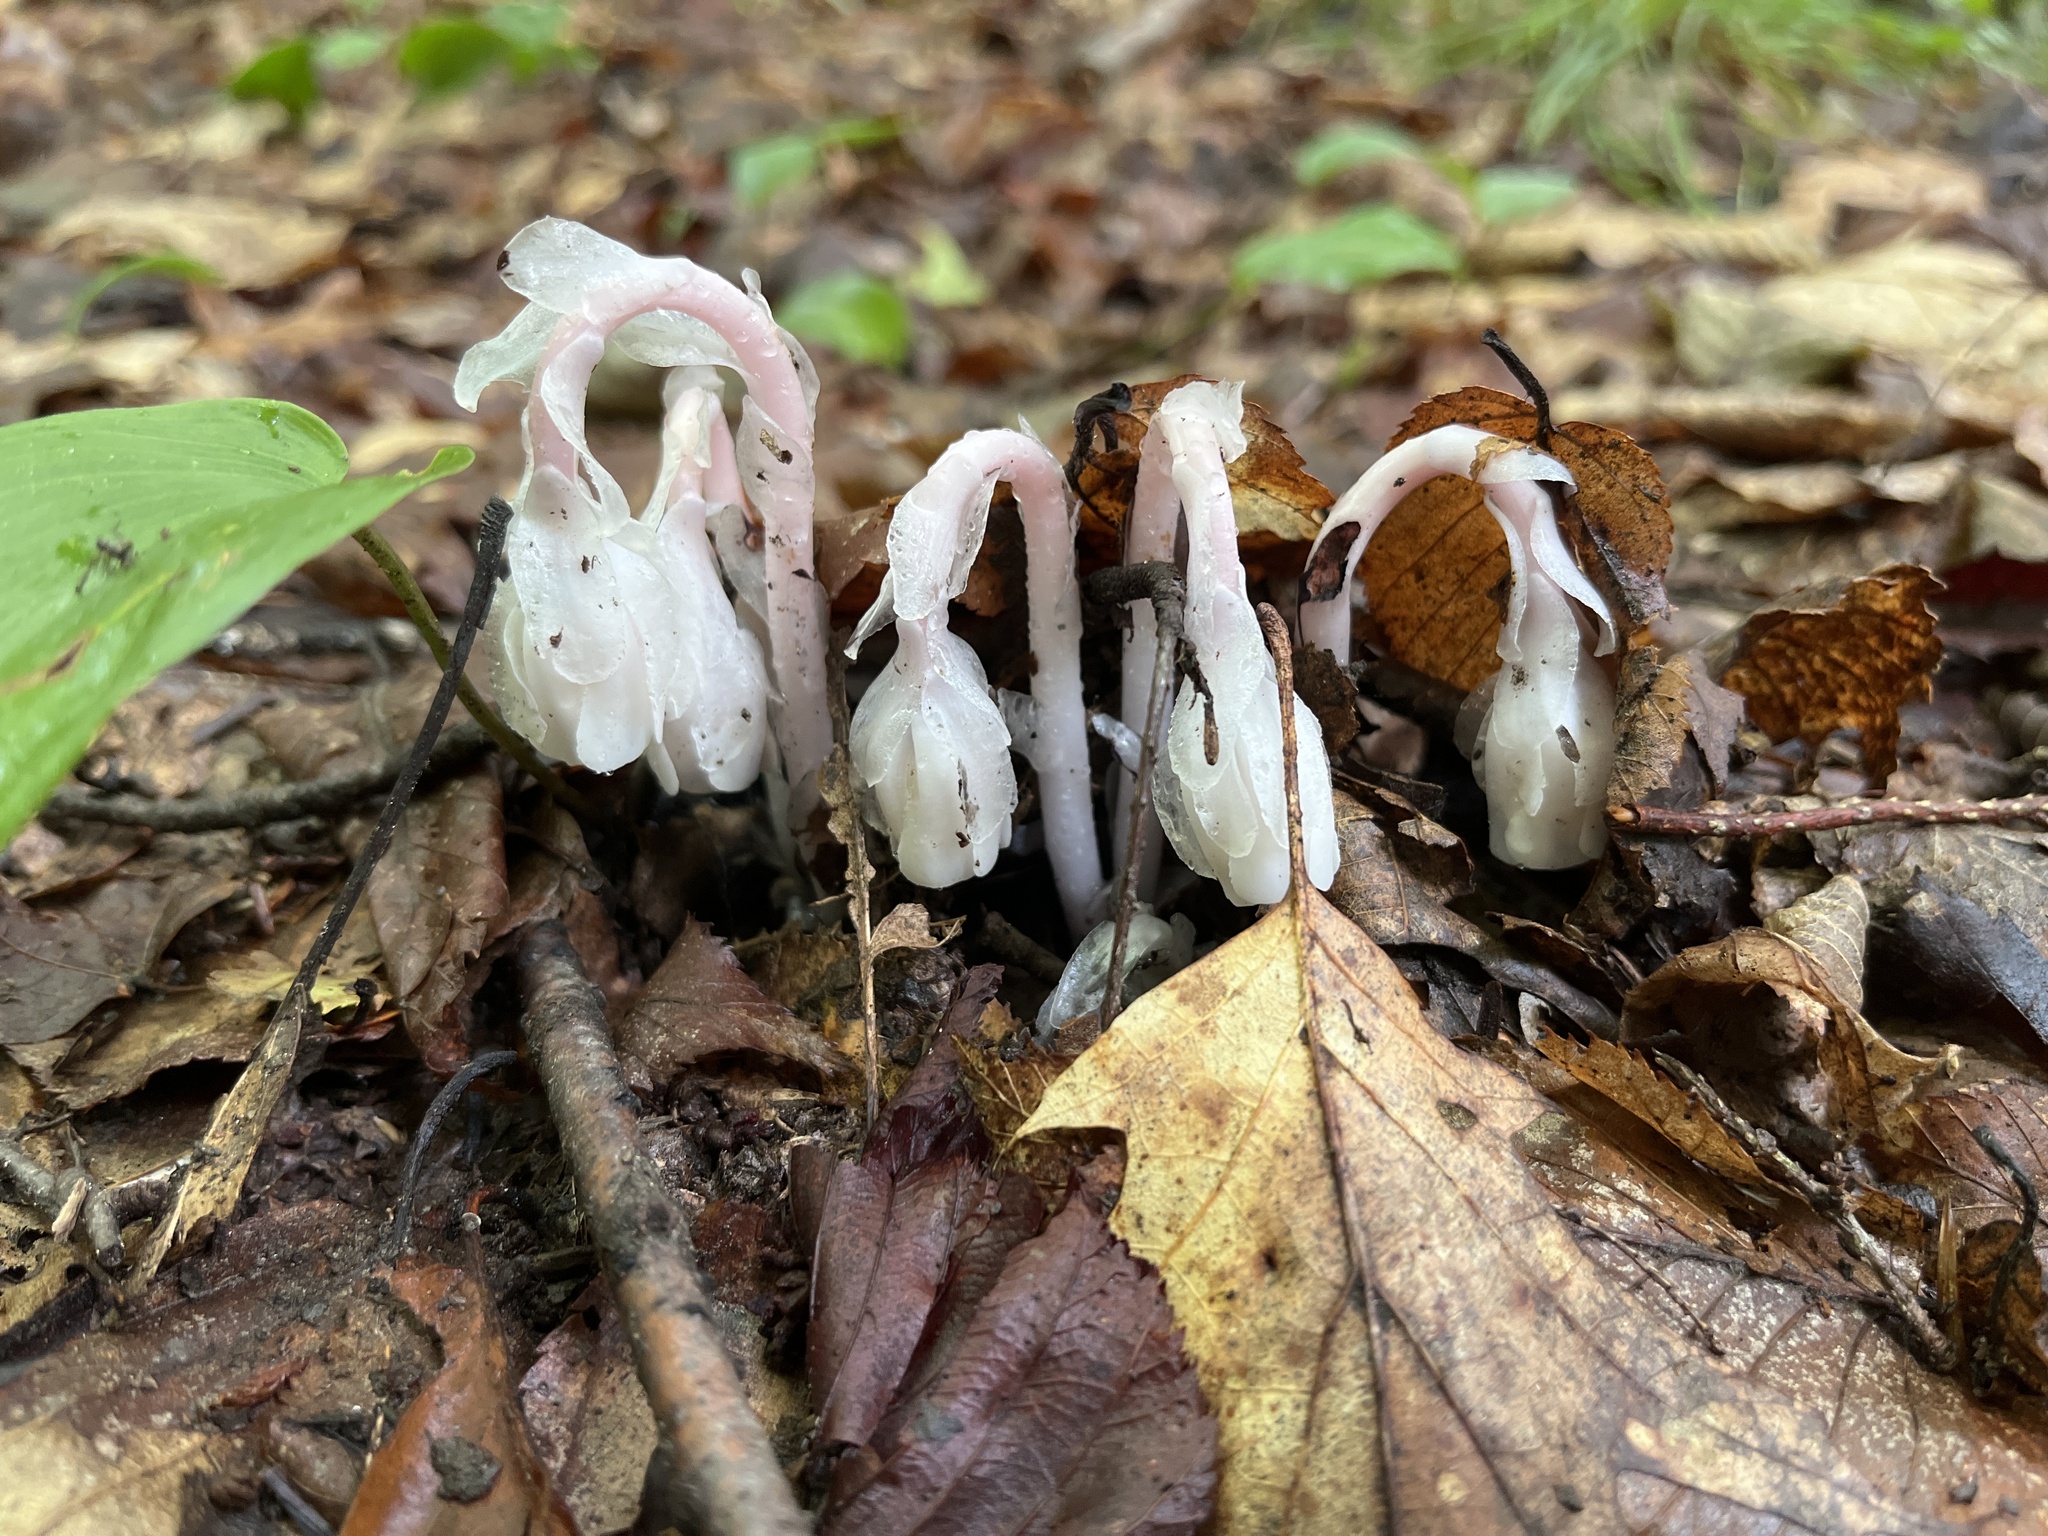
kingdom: Plantae
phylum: Tracheophyta
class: Magnoliopsida
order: Ericales
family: Ericaceae
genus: Monotropa
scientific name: Monotropa uniflora
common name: Convulsion root
